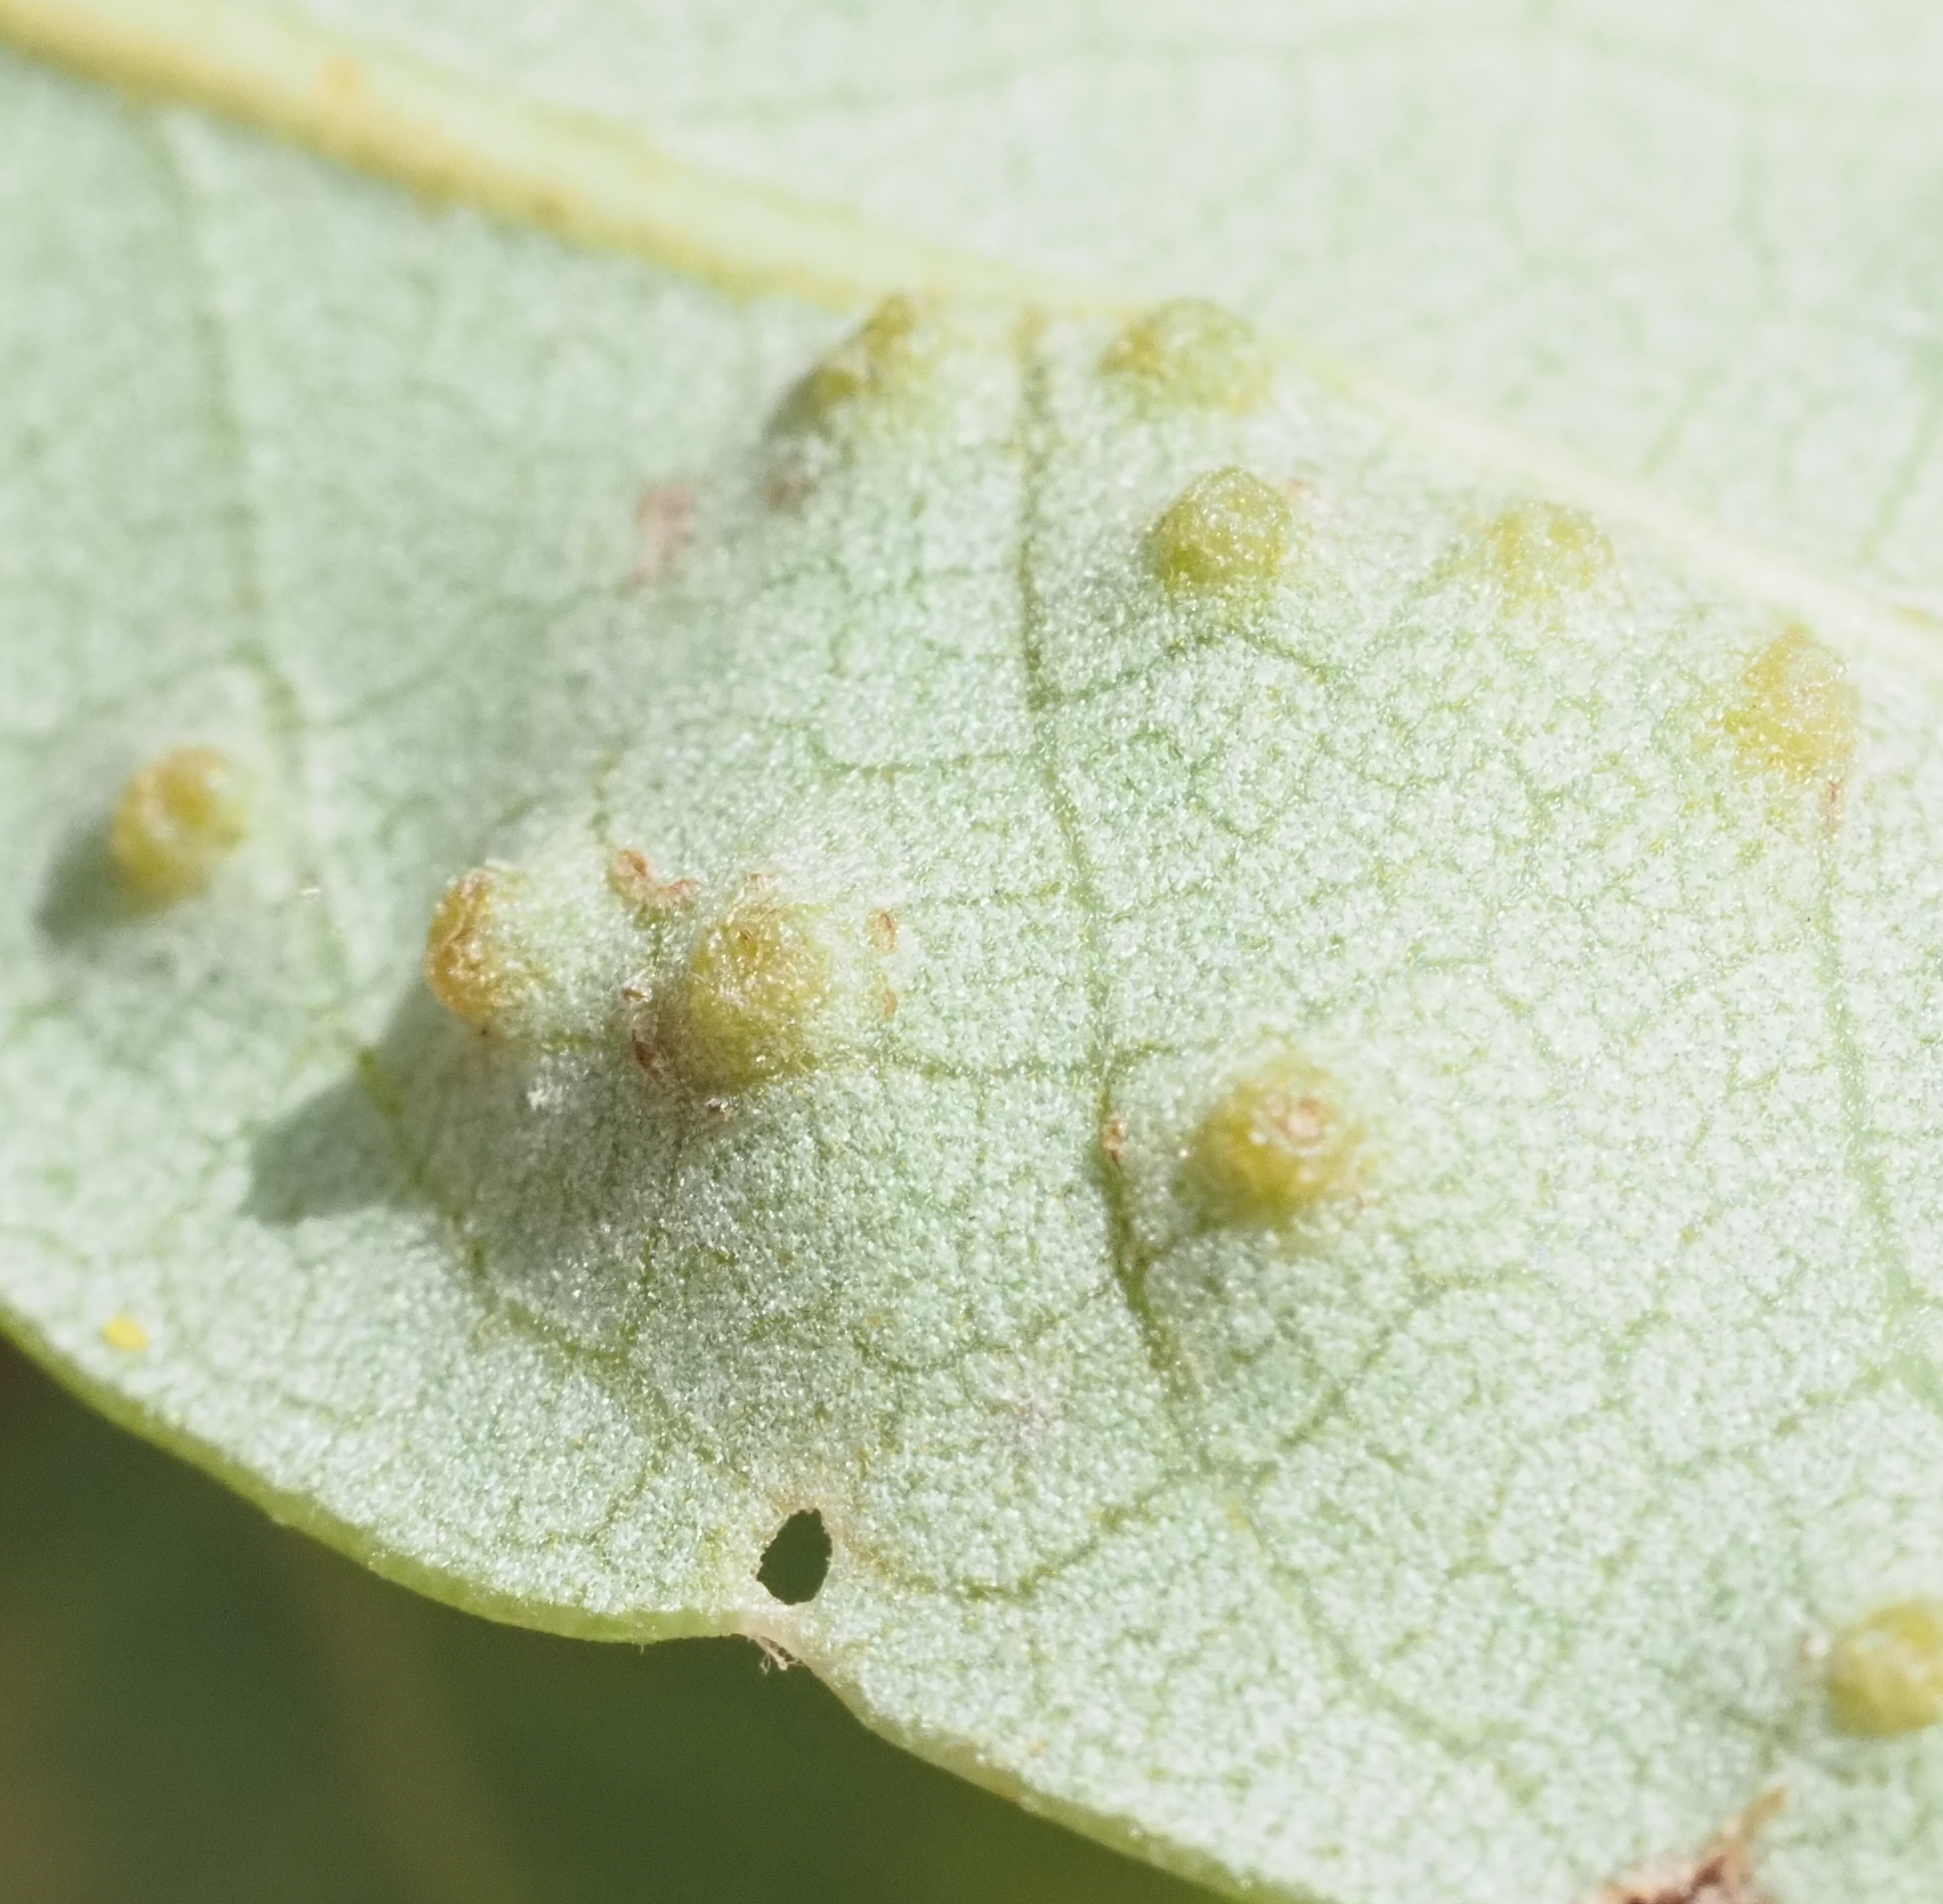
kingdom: Animalia
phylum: Arthropoda
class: Insecta
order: Hymenoptera
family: Cynipidae
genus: Neuroterus
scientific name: Neuroterus
